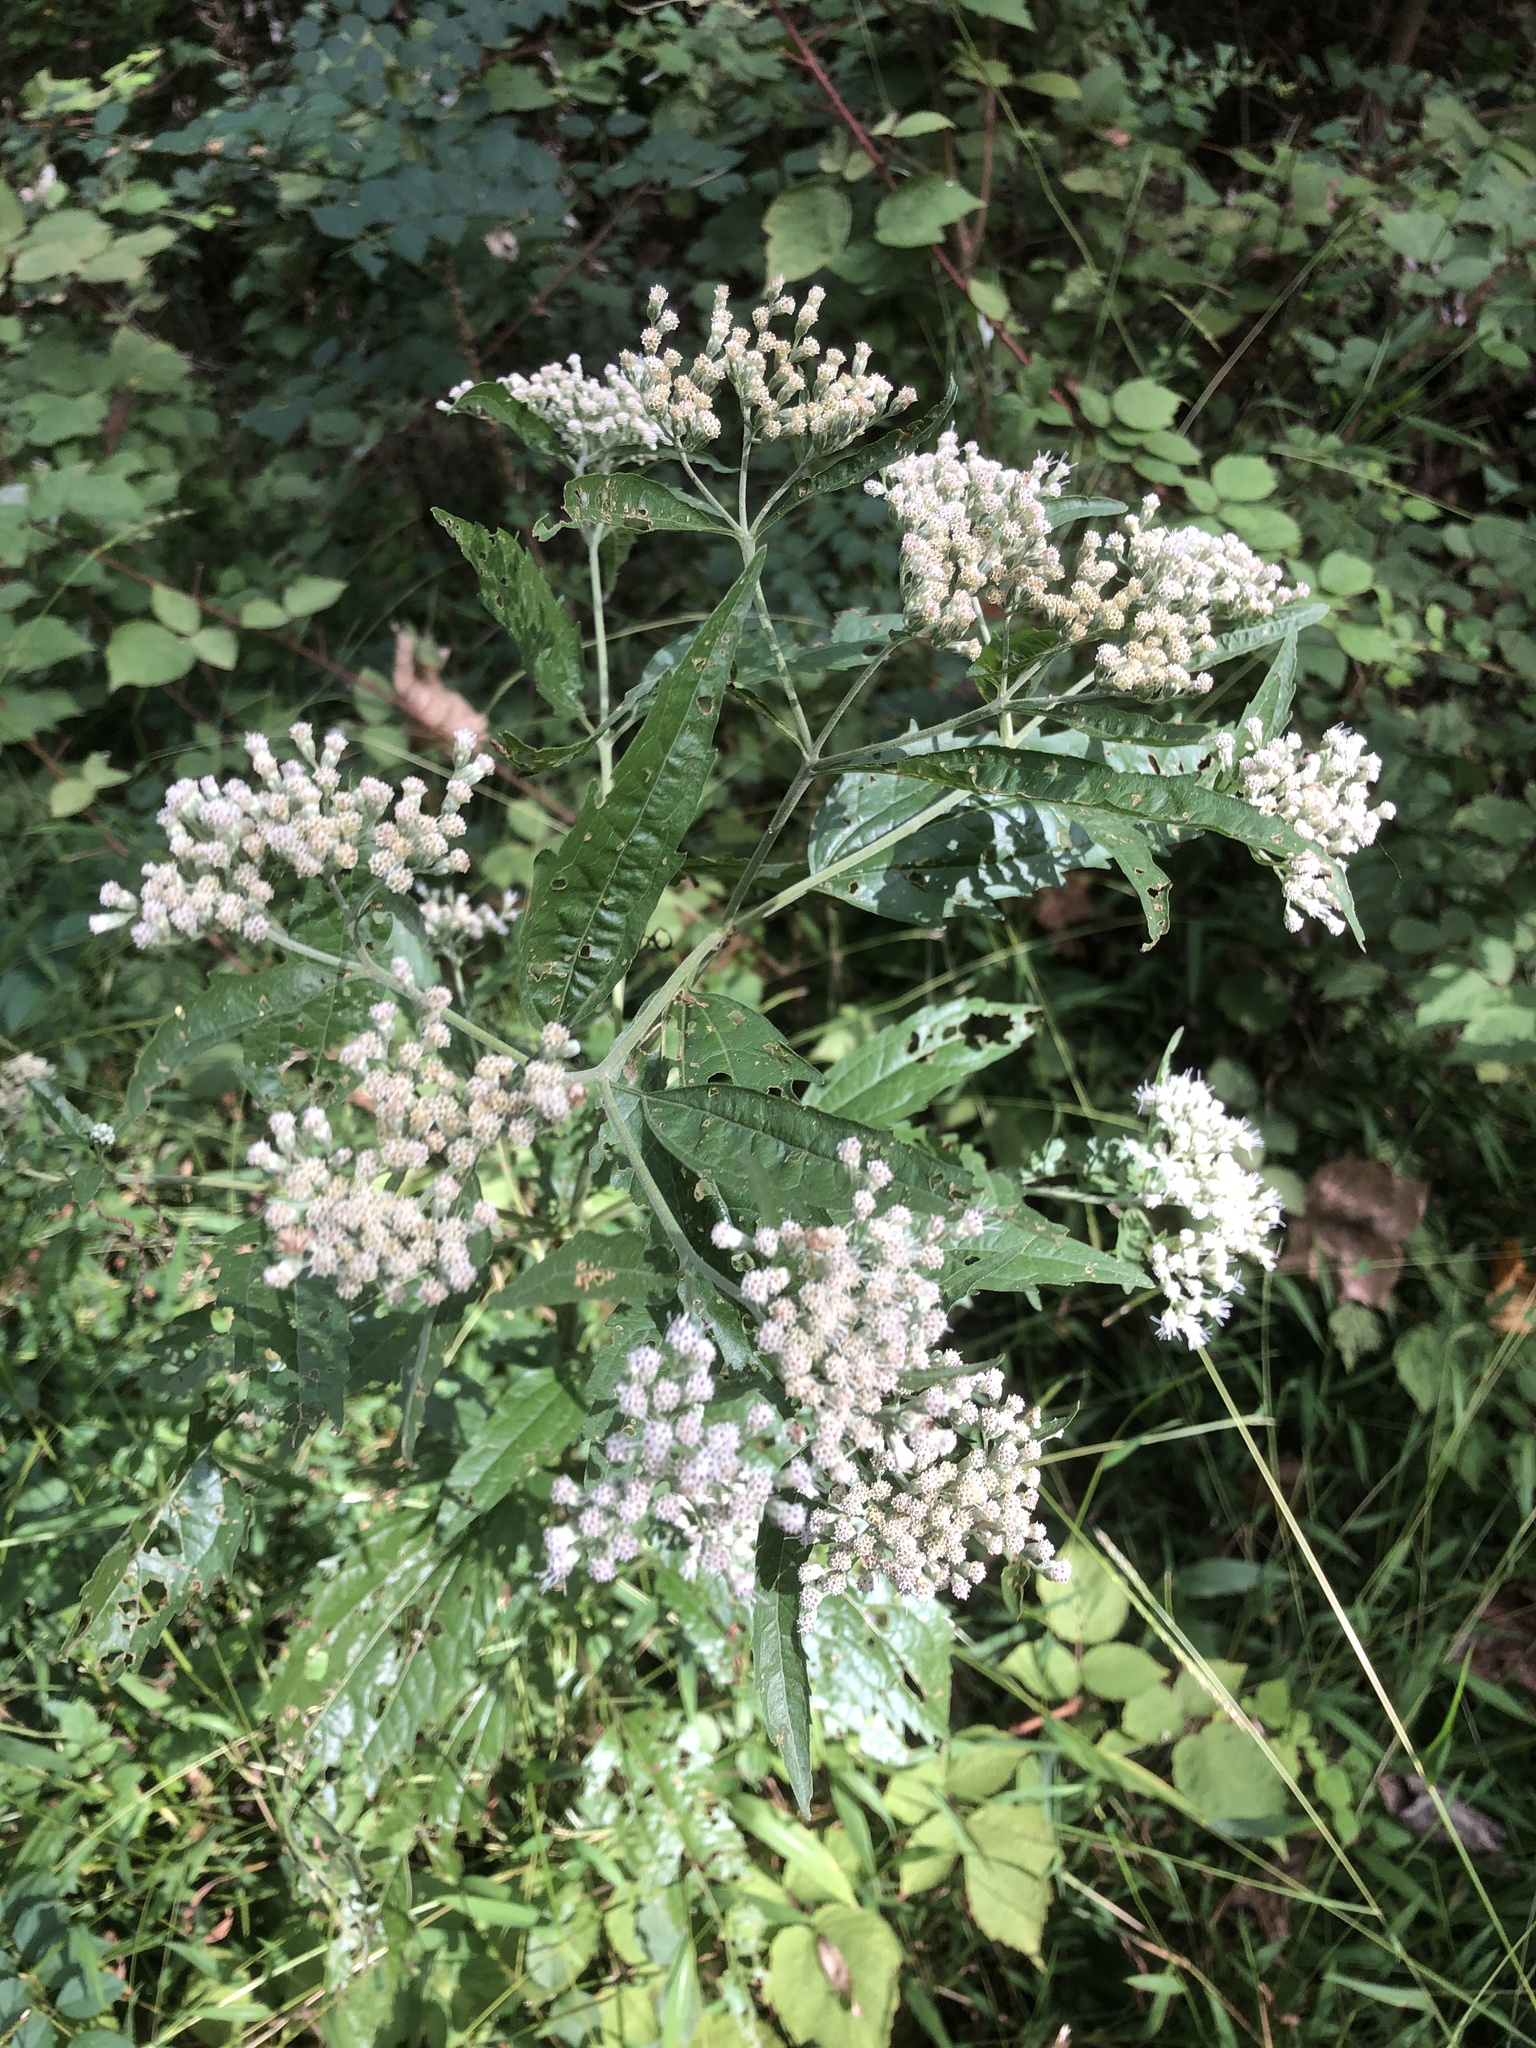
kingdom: Plantae
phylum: Tracheophyta
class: Magnoliopsida
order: Asterales
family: Asteraceae
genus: Eupatorium
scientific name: Eupatorium serotinum
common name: Late boneset
